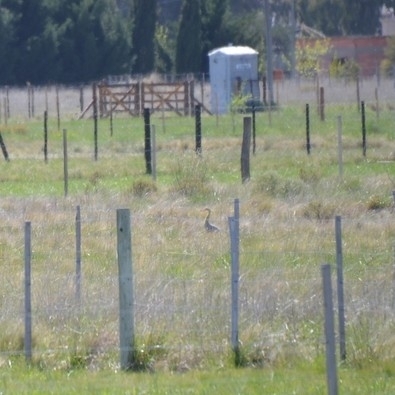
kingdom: Animalia
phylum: Chordata
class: Aves
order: Pelecaniformes
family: Ardeidae
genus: Syrigma
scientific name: Syrigma sibilatrix
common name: Whistling heron
